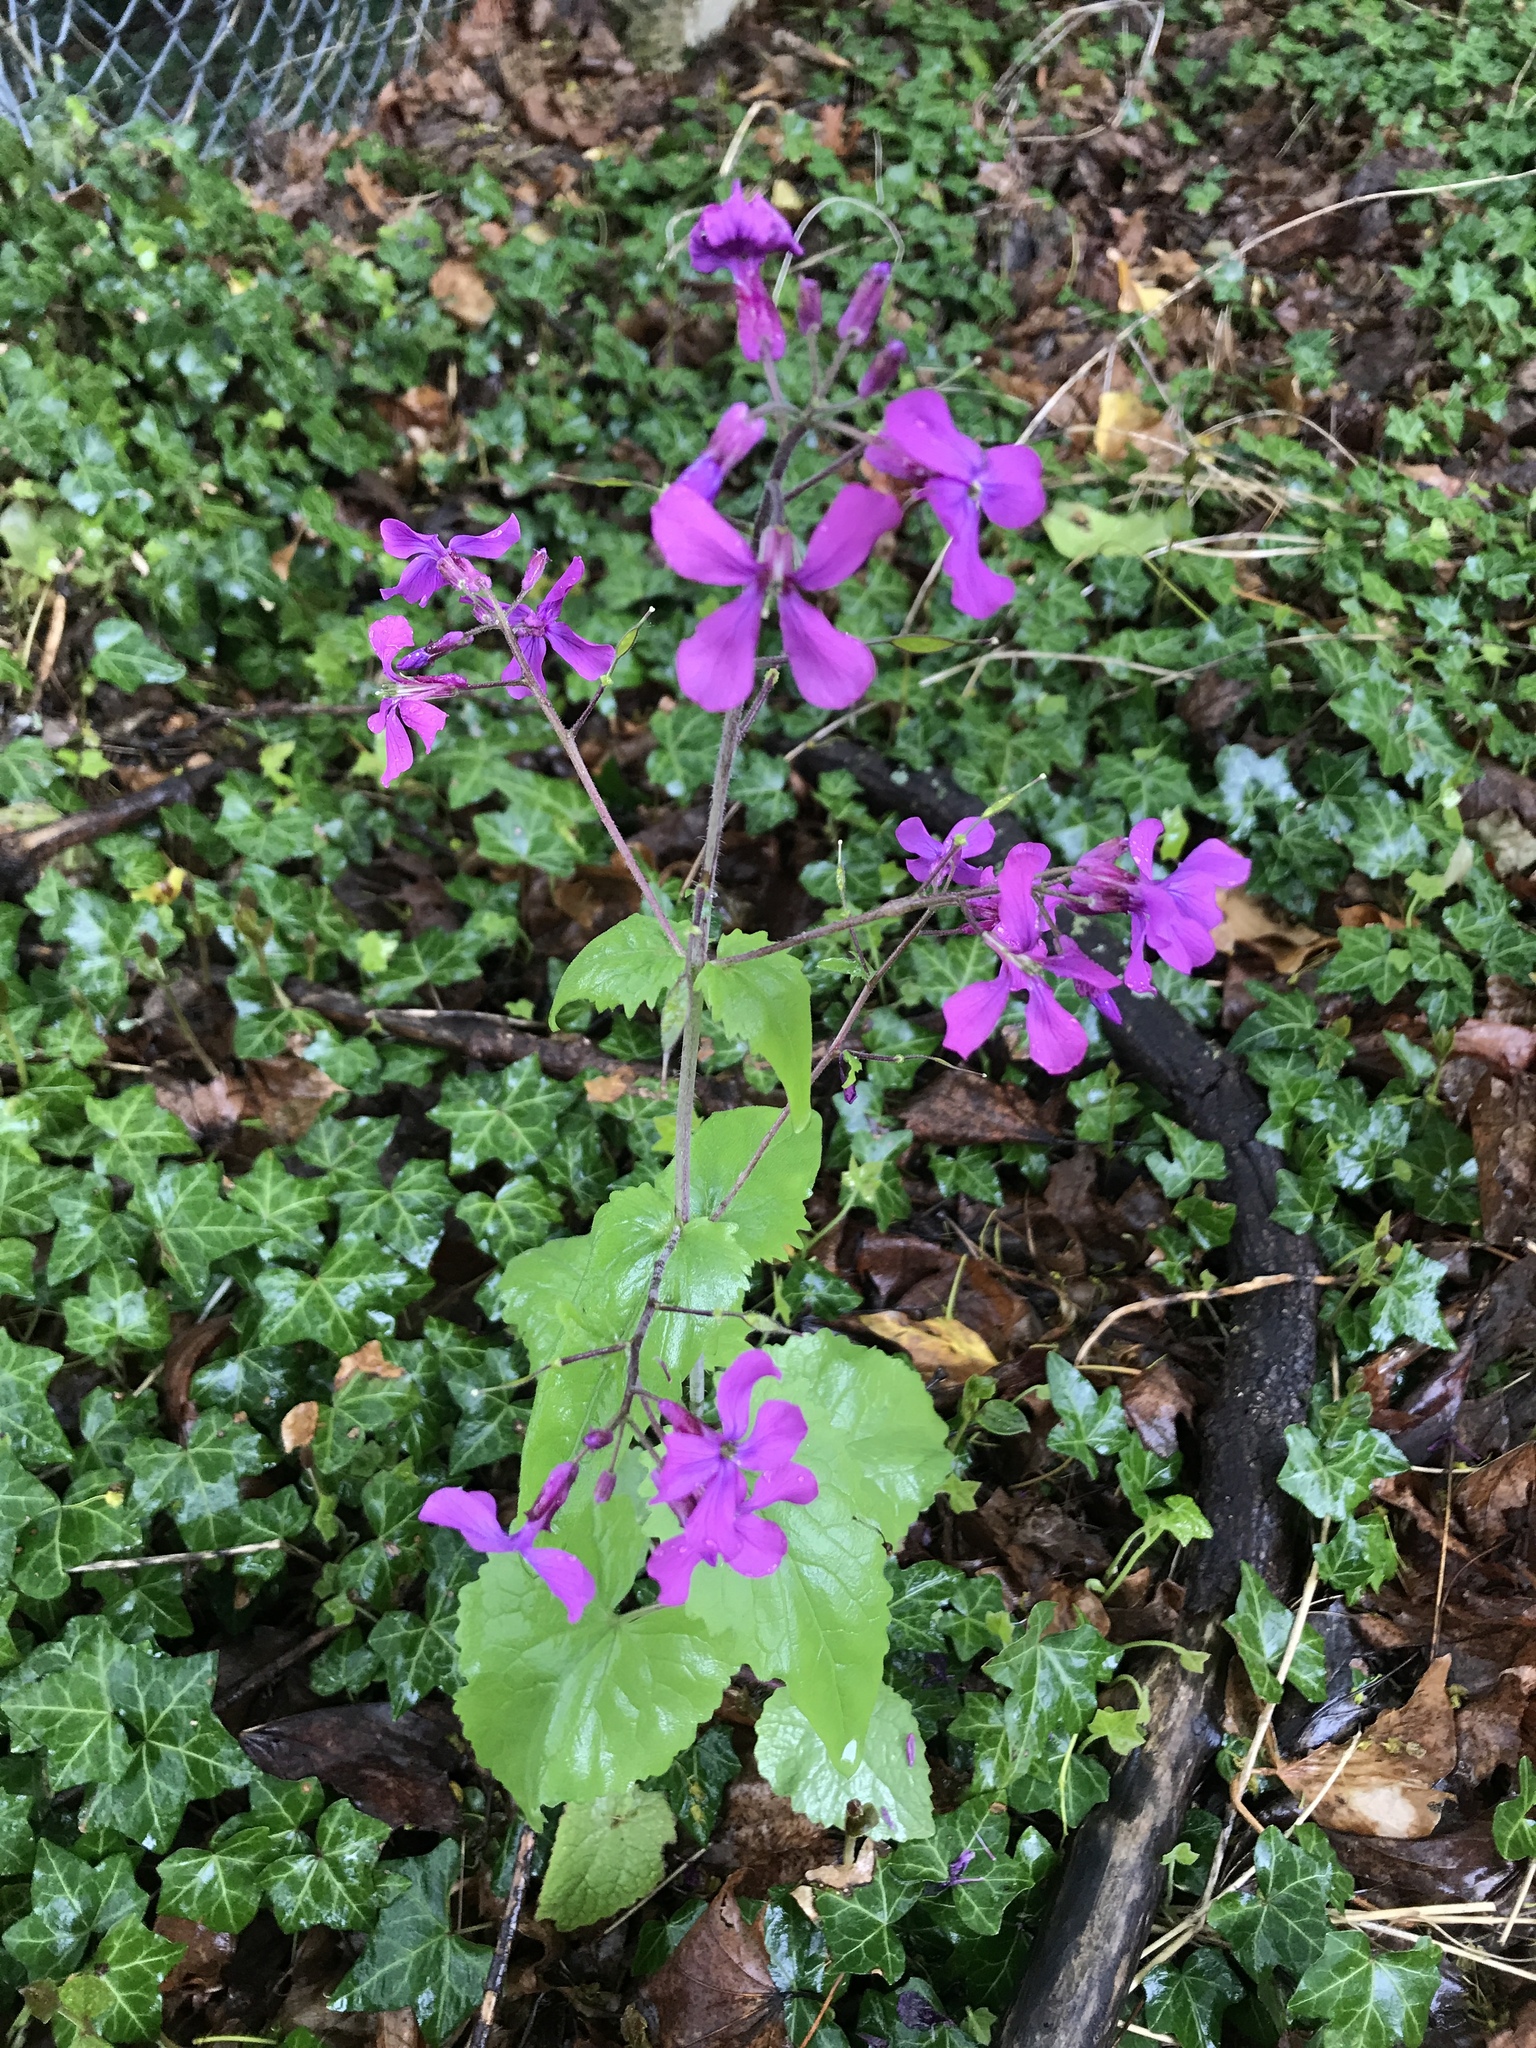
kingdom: Plantae
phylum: Tracheophyta
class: Magnoliopsida
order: Brassicales
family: Brassicaceae
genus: Lunaria
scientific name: Lunaria annua
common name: Honesty
